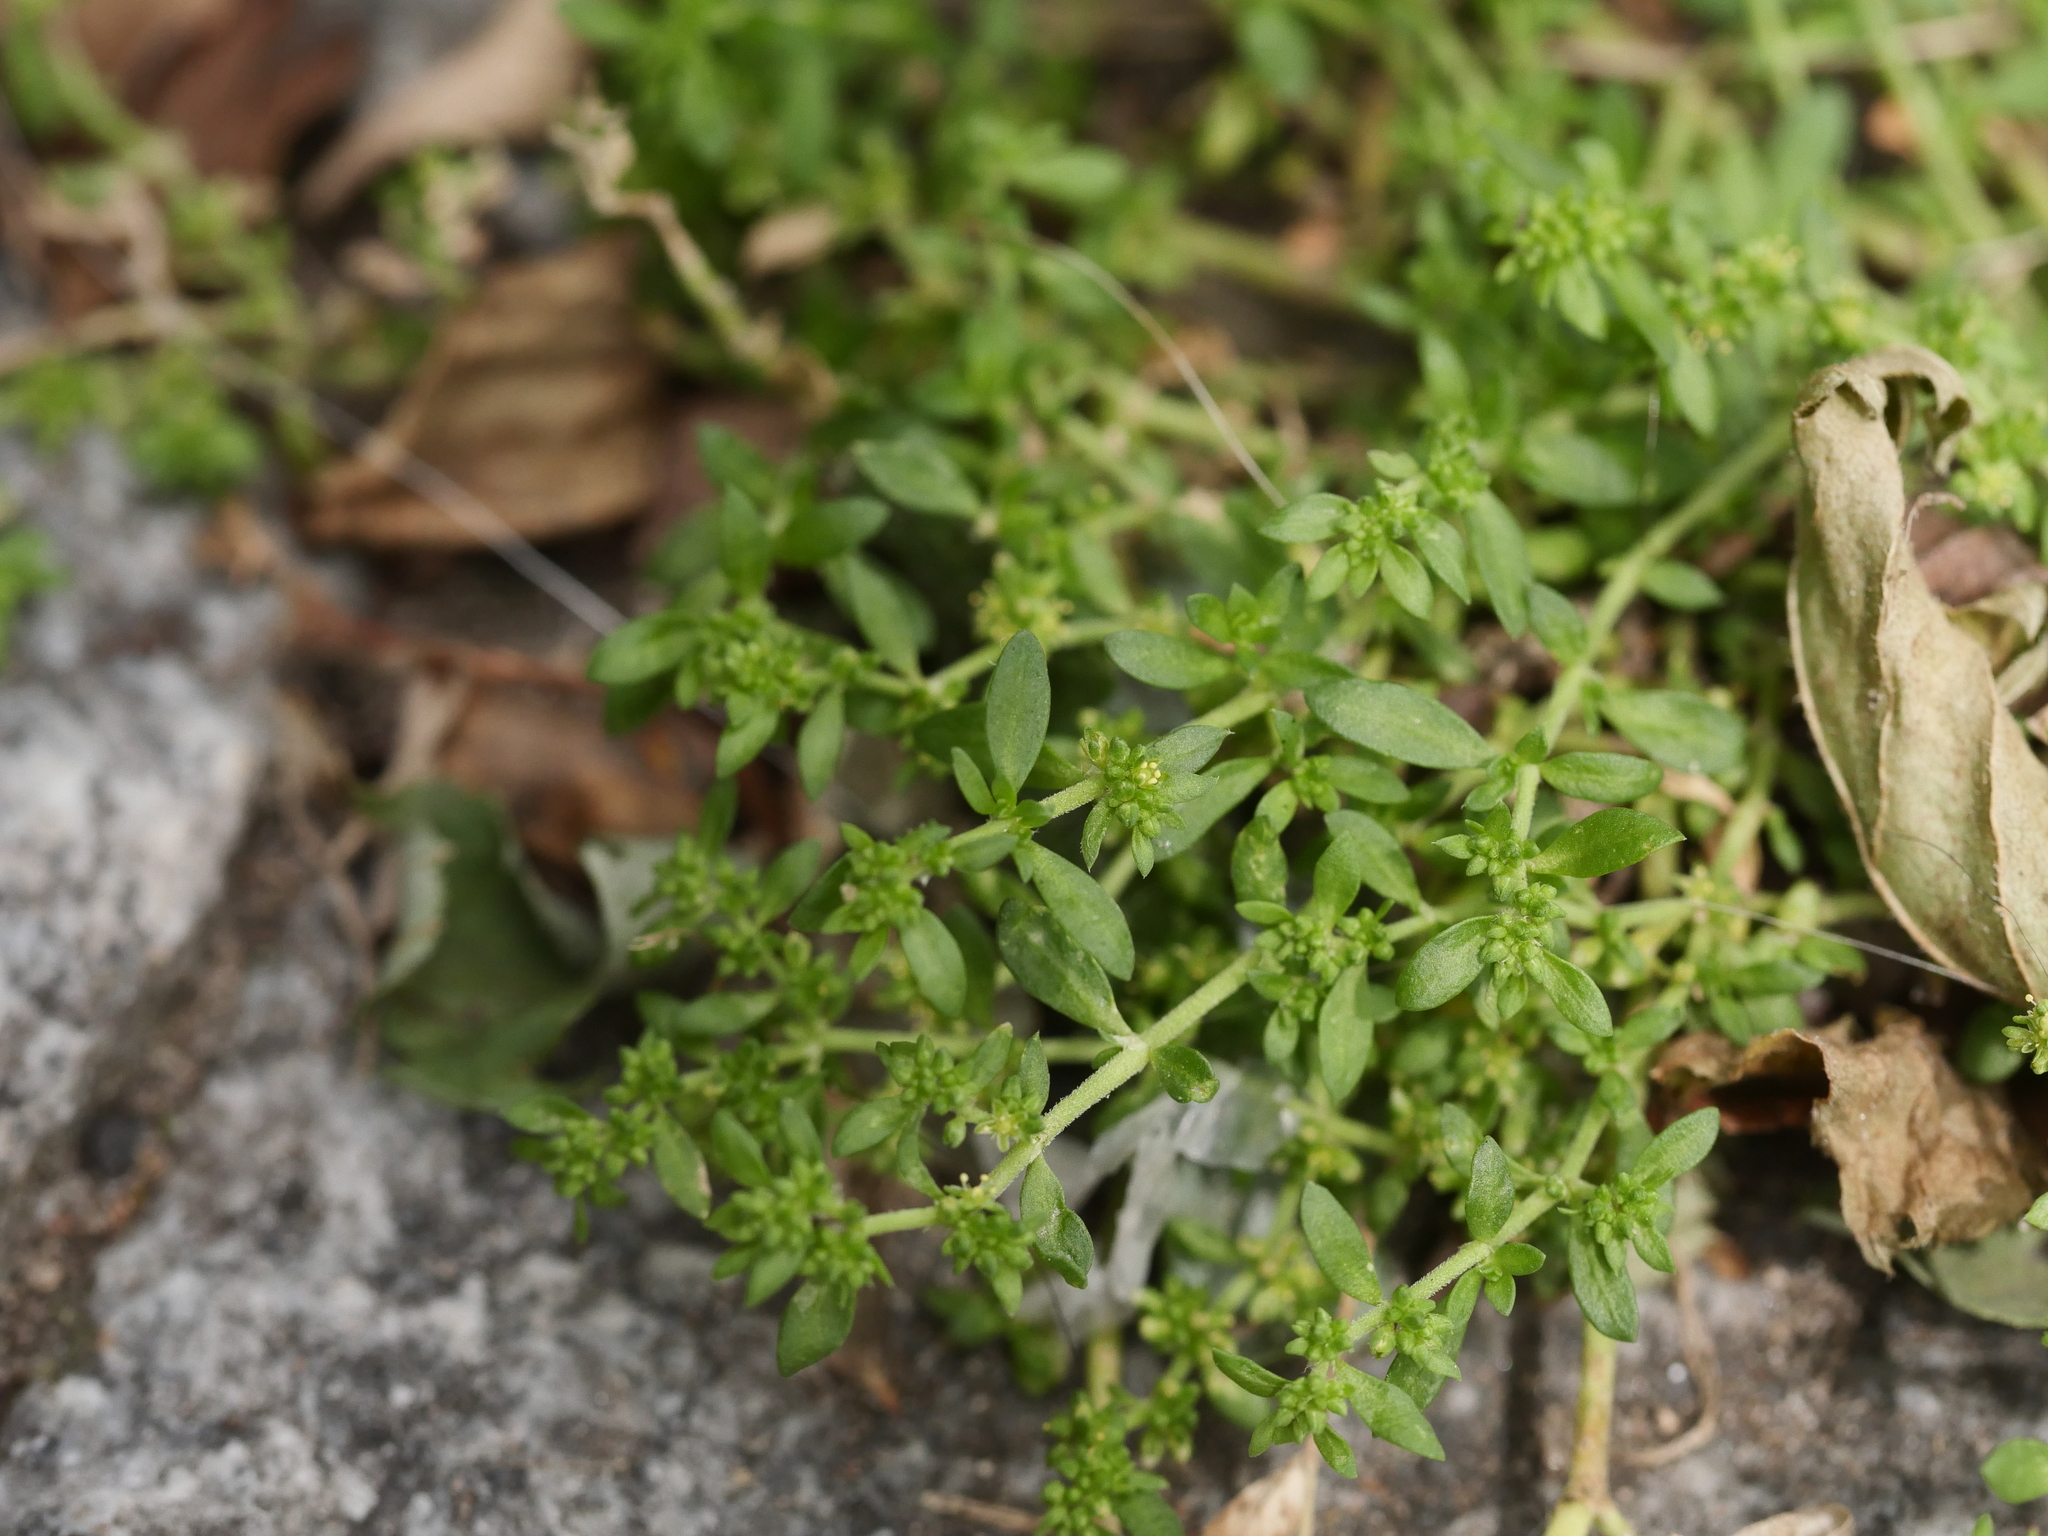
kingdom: Plantae
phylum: Tracheophyta
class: Magnoliopsida
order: Caryophyllales
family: Caryophyllaceae
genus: Herniaria
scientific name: Herniaria glabra
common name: Smooth rupturewort
